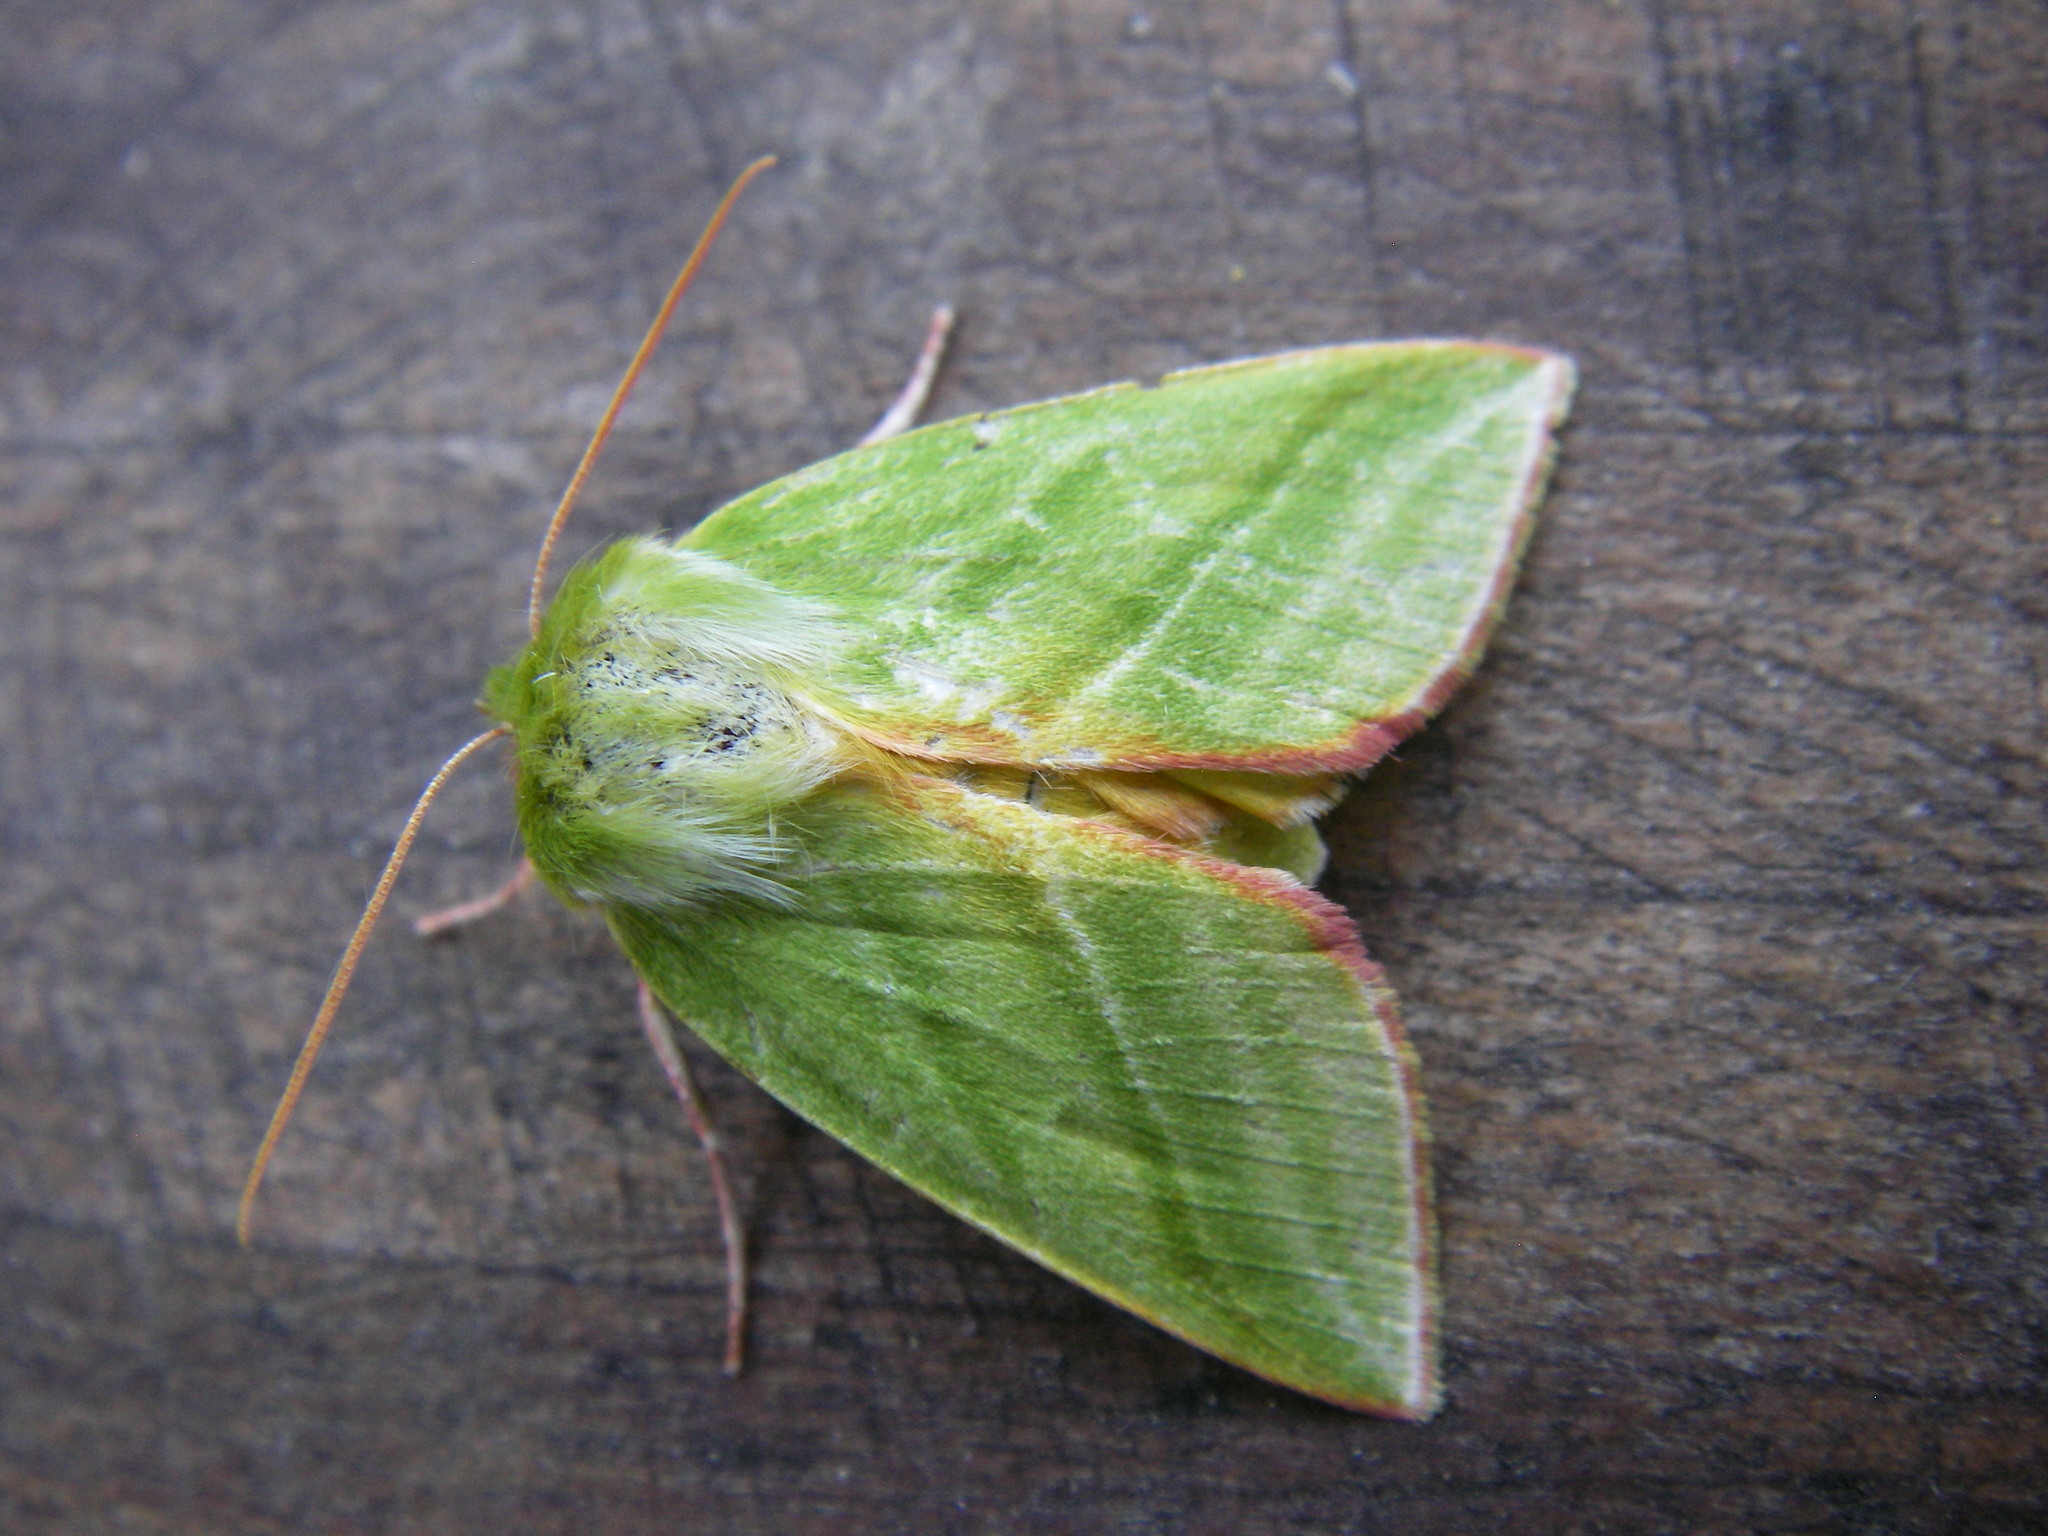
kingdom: Animalia
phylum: Arthropoda
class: Insecta
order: Lepidoptera
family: Nolidae
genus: Pseudoips
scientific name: Pseudoips prasinana
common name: Green silver-lines
